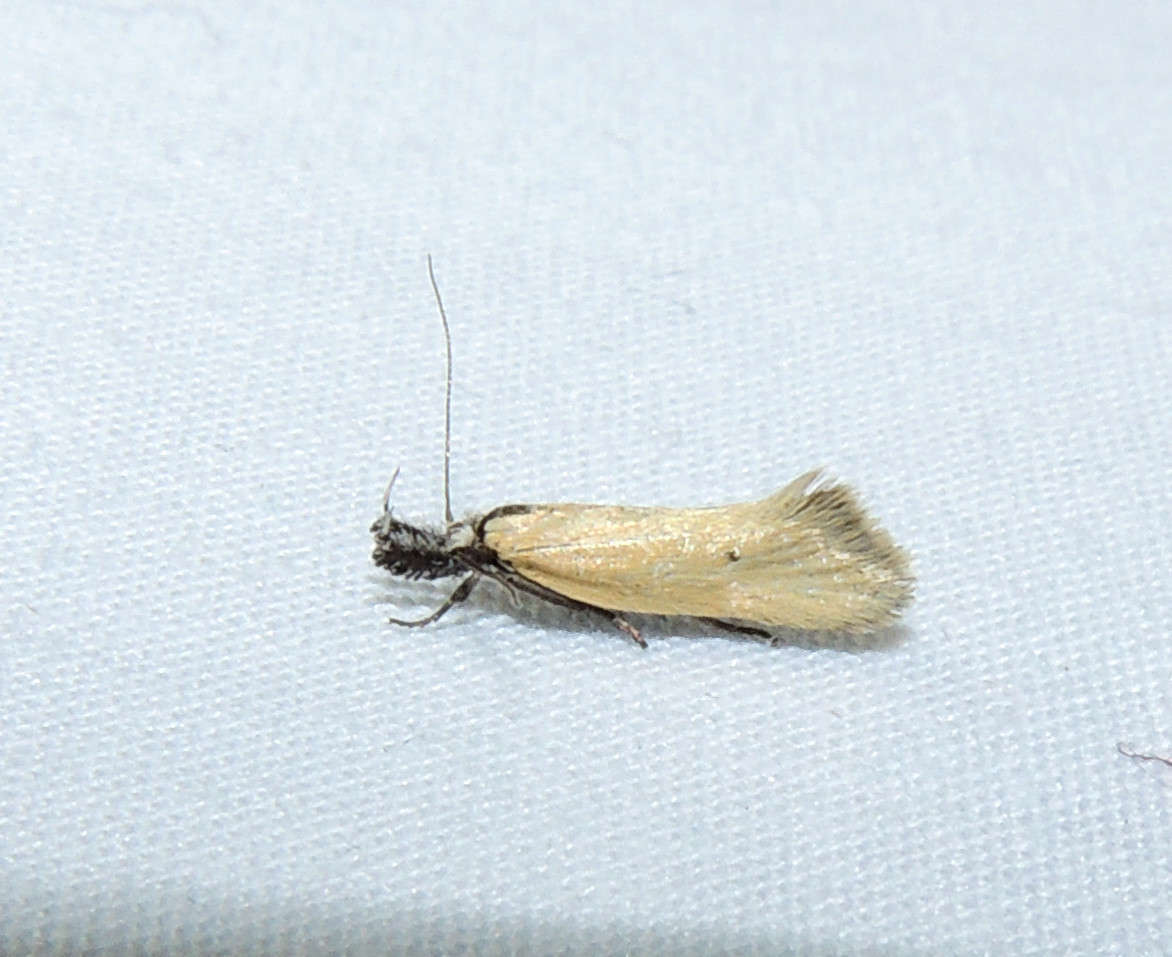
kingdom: Animalia
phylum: Arthropoda
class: Insecta
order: Lepidoptera
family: Oecophoridae
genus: Thema
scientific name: Thema protogramma
